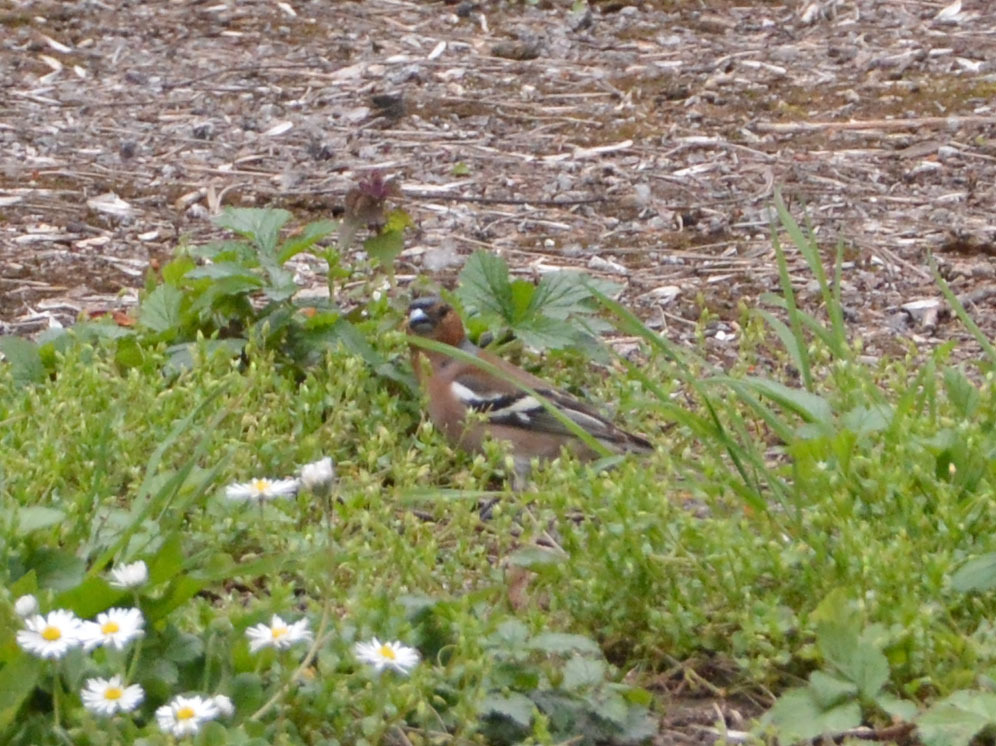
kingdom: Animalia
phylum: Chordata
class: Aves
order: Passeriformes
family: Fringillidae
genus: Fringilla
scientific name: Fringilla coelebs
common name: Common chaffinch
